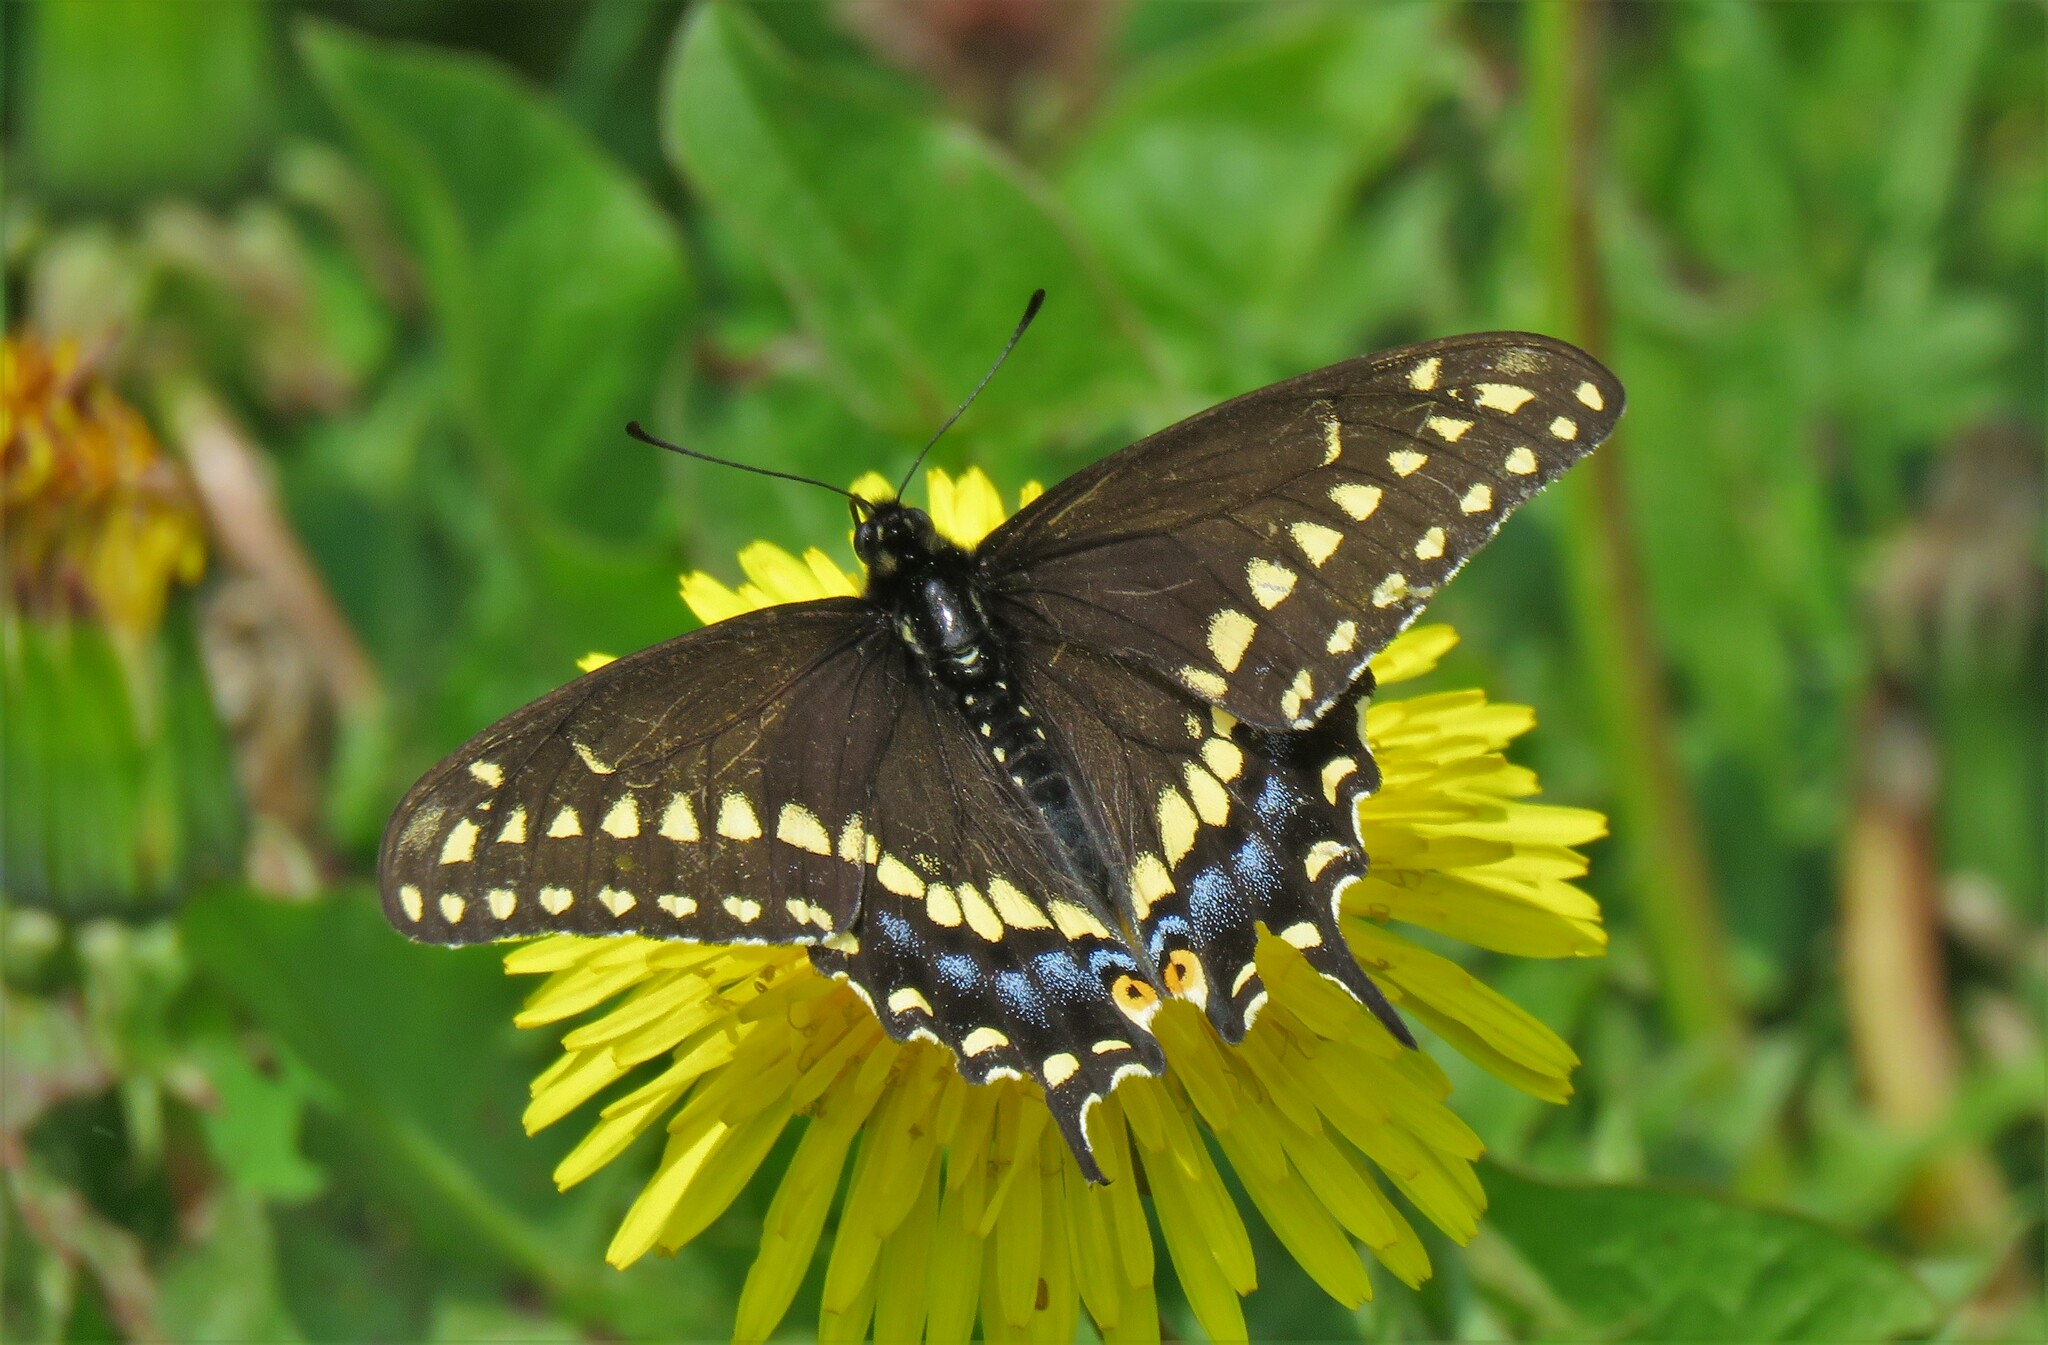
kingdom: Animalia
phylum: Arthropoda
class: Insecta
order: Lepidoptera
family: Papilionidae
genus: Papilio
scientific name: Papilio polyxenes
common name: Black swallowtail
